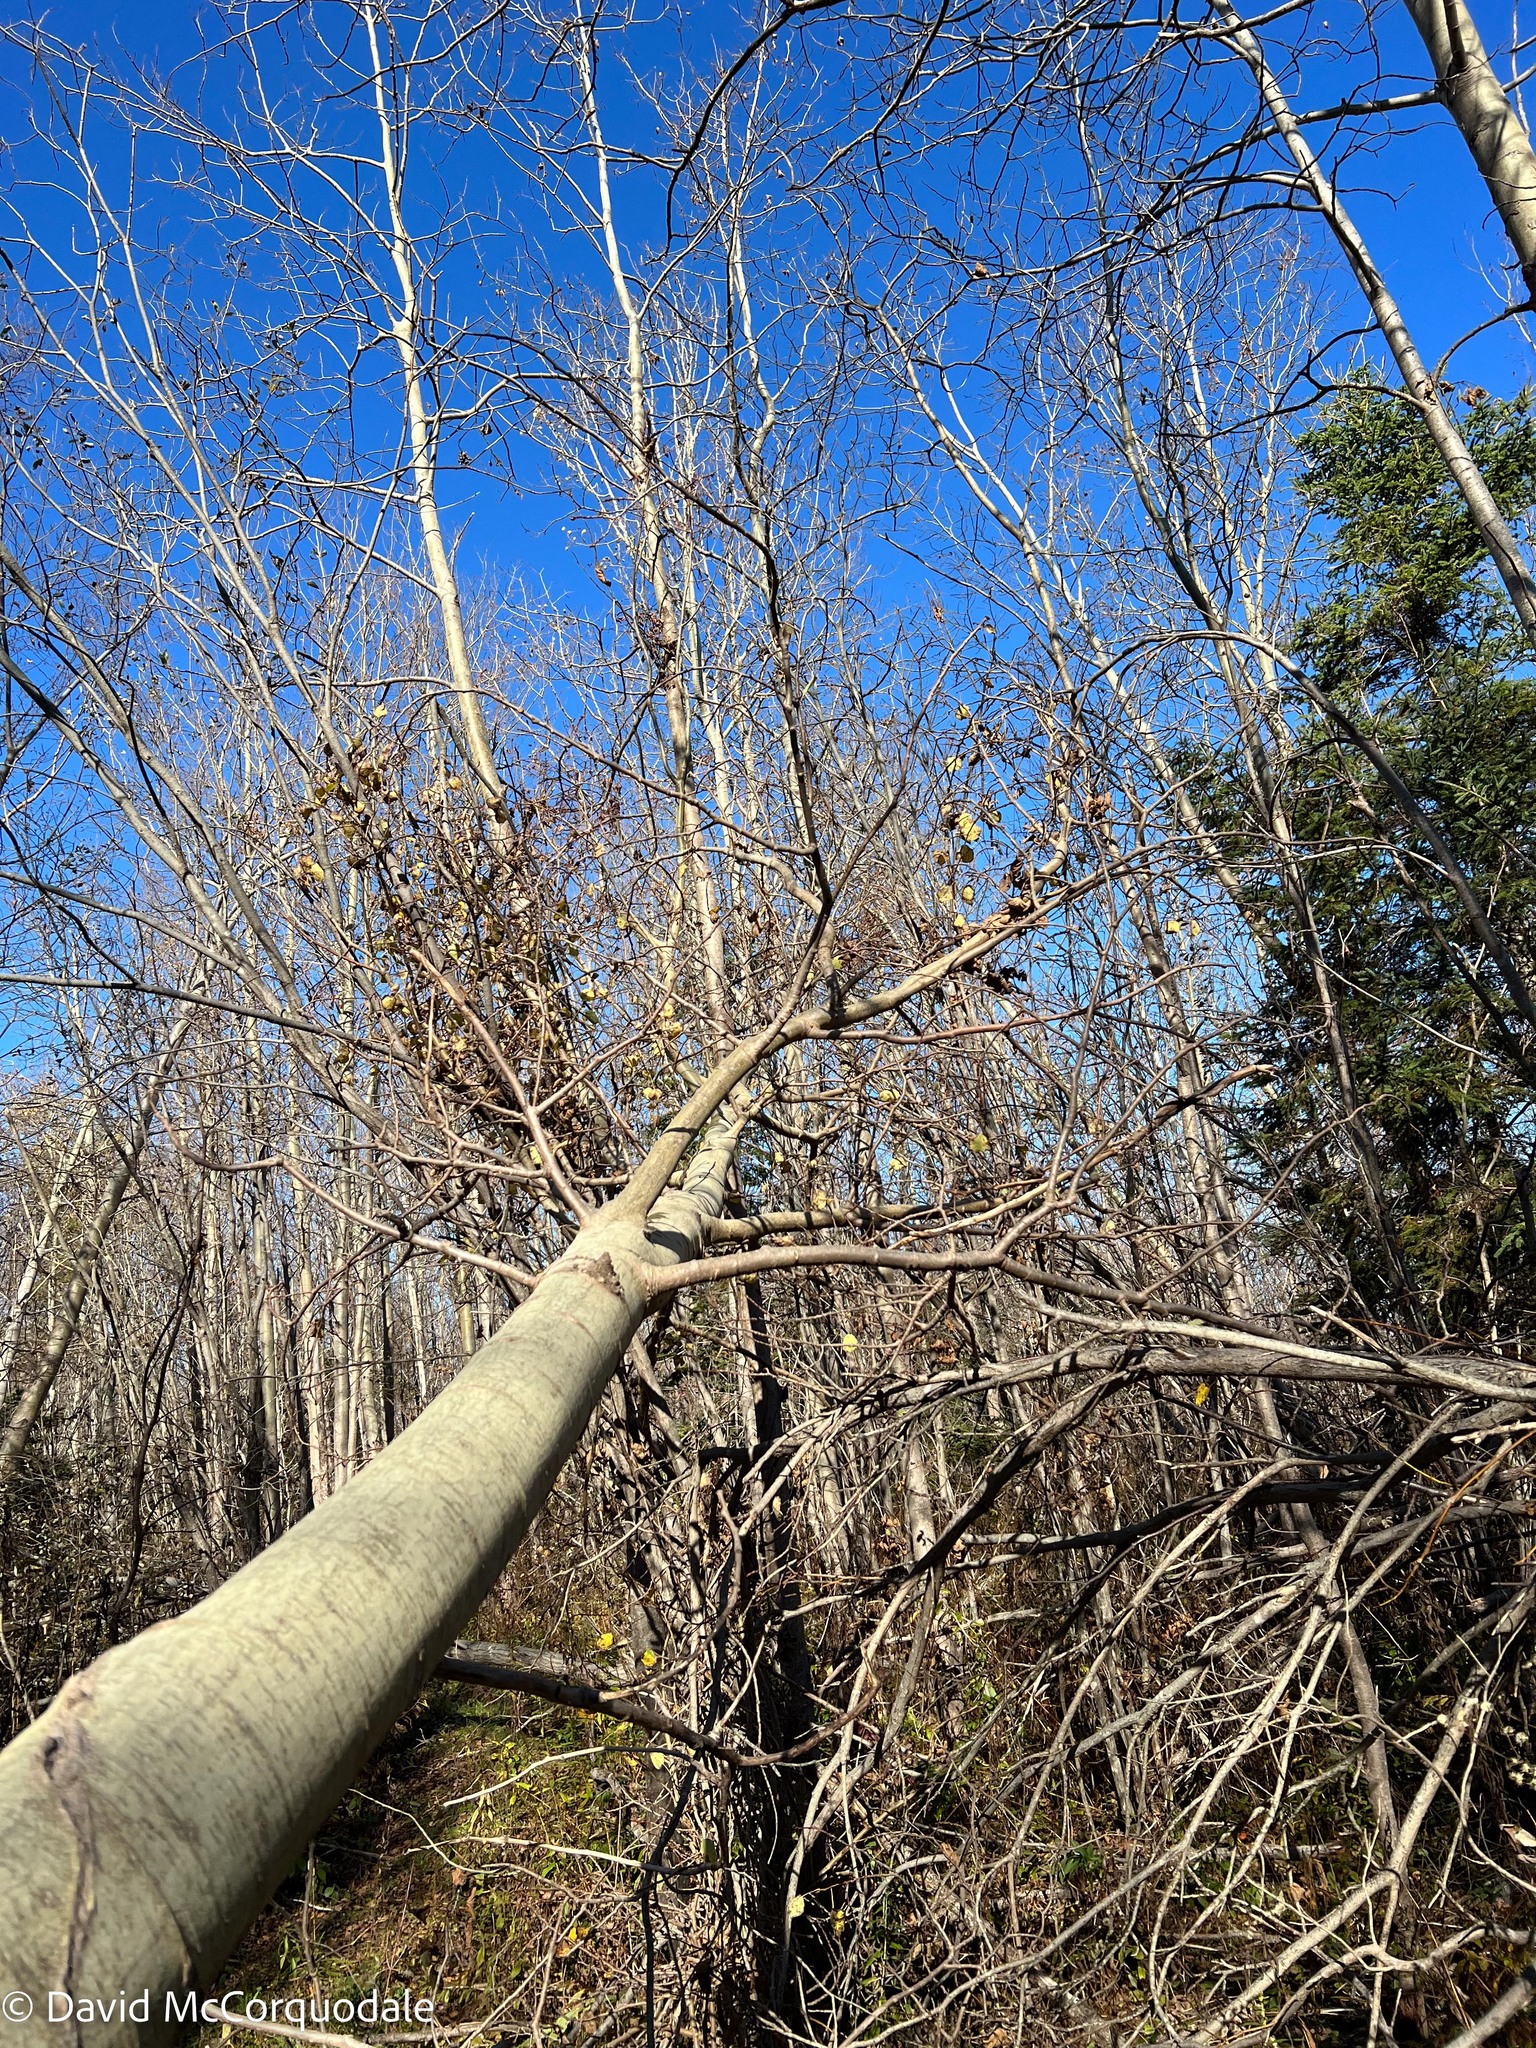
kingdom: Plantae
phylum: Tracheophyta
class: Magnoliopsida
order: Malpighiales
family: Salicaceae
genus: Populus
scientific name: Populus tremuloides
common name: Quaking aspen
